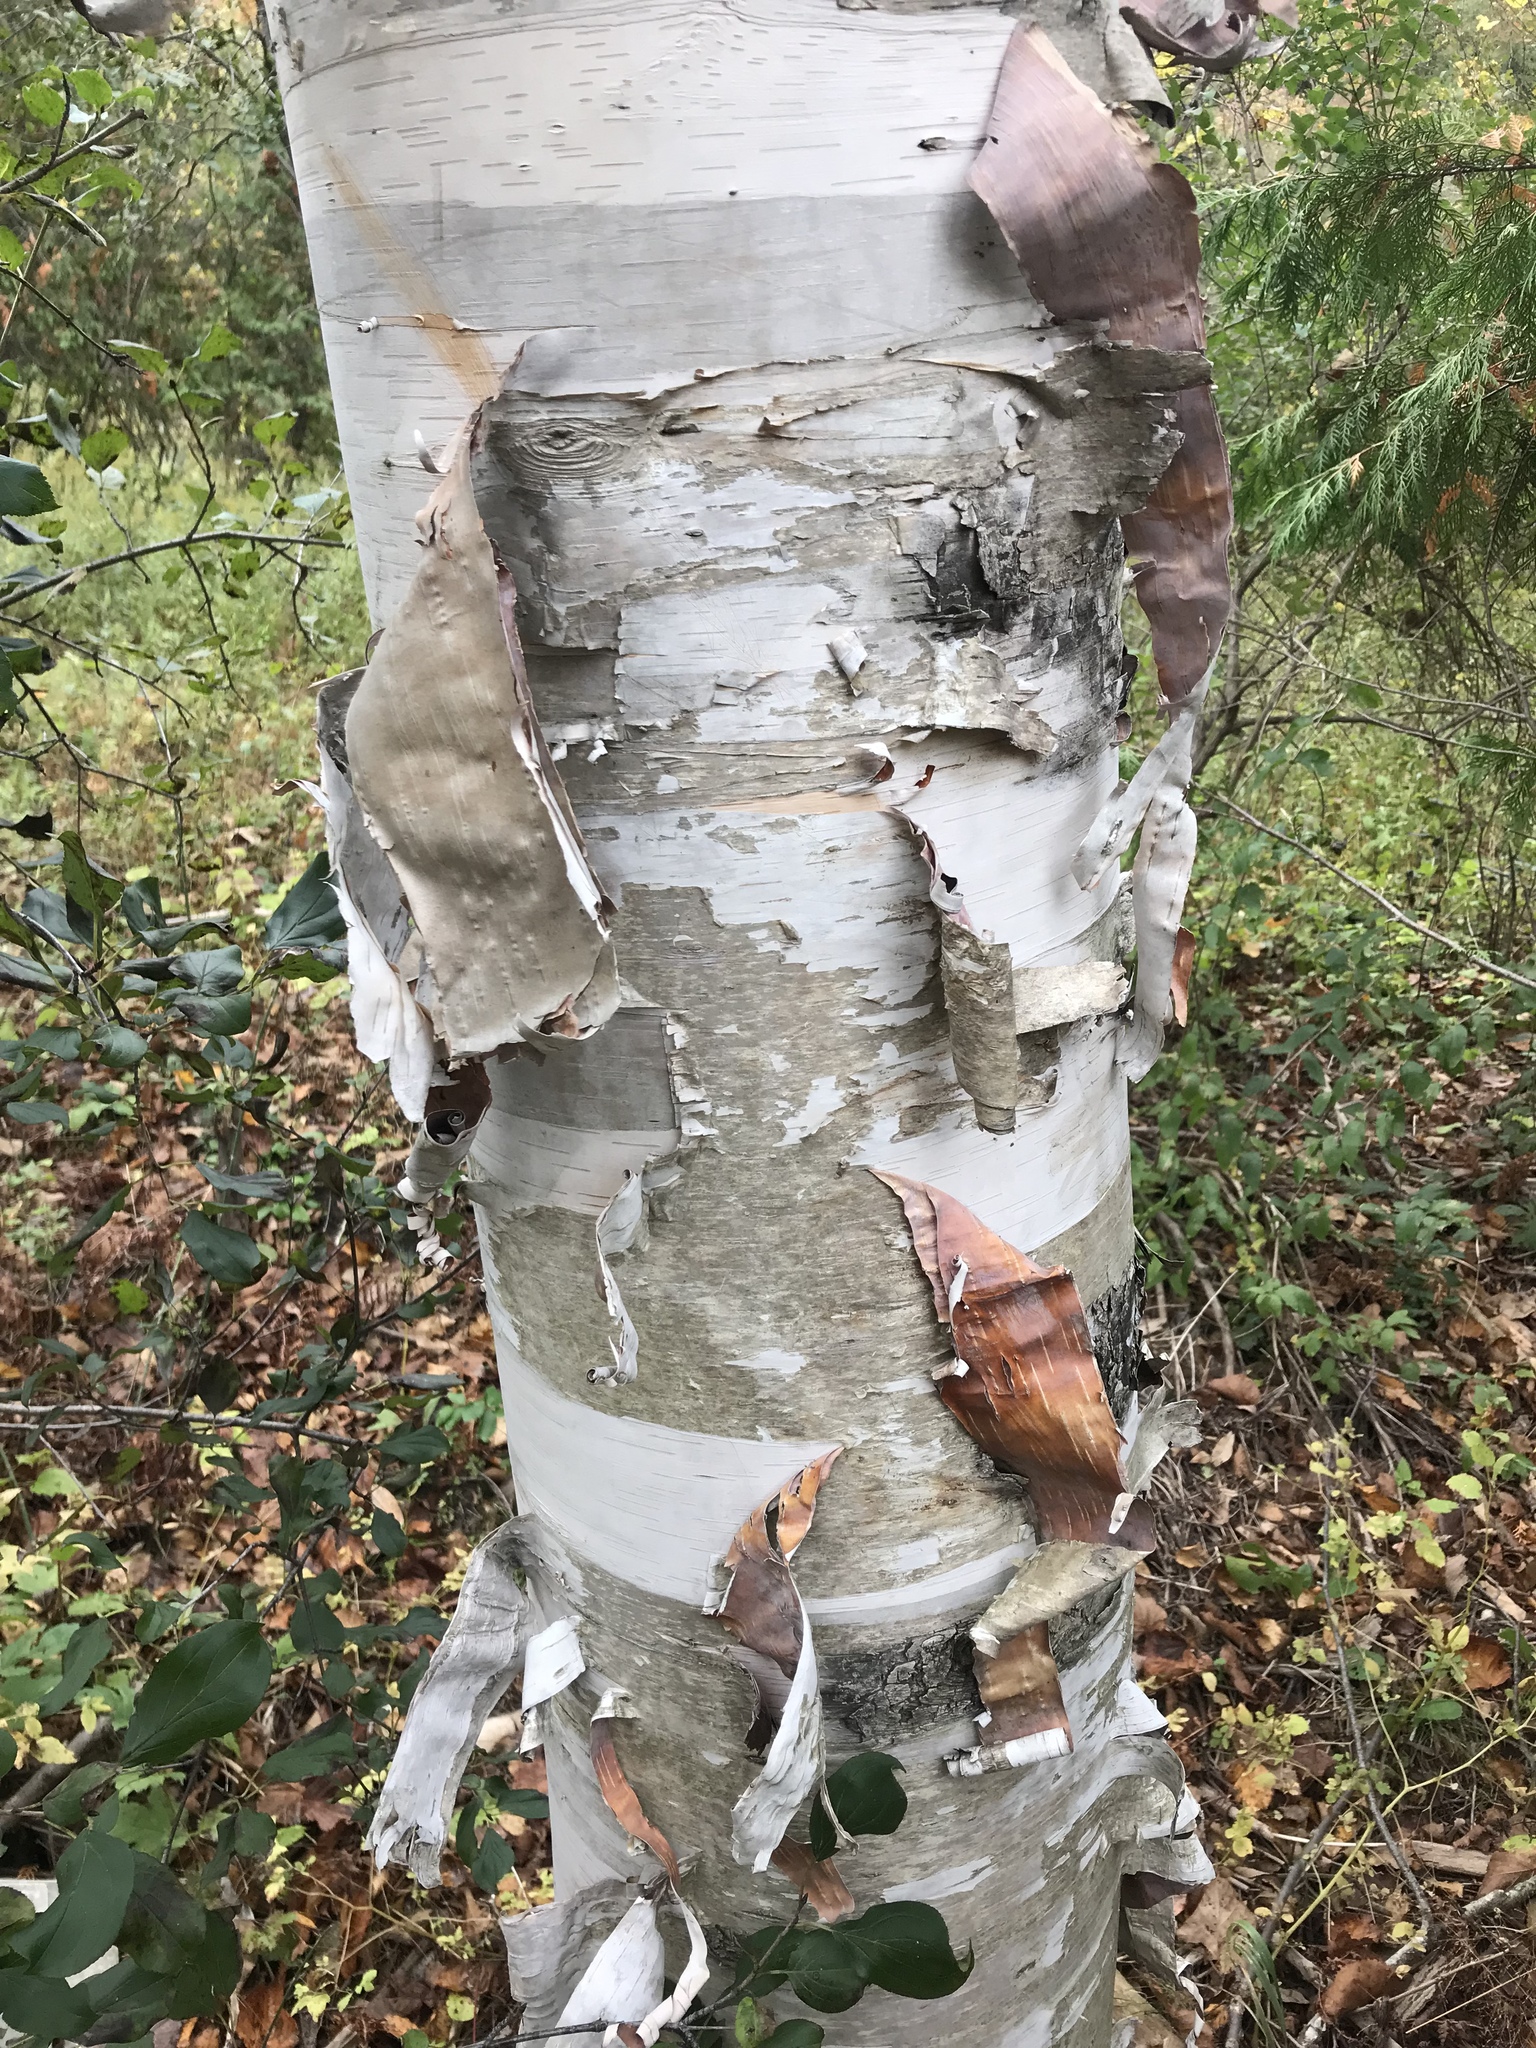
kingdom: Plantae
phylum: Tracheophyta
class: Magnoliopsida
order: Fagales
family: Betulaceae
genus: Betula
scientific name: Betula papyrifera
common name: Paper birch
